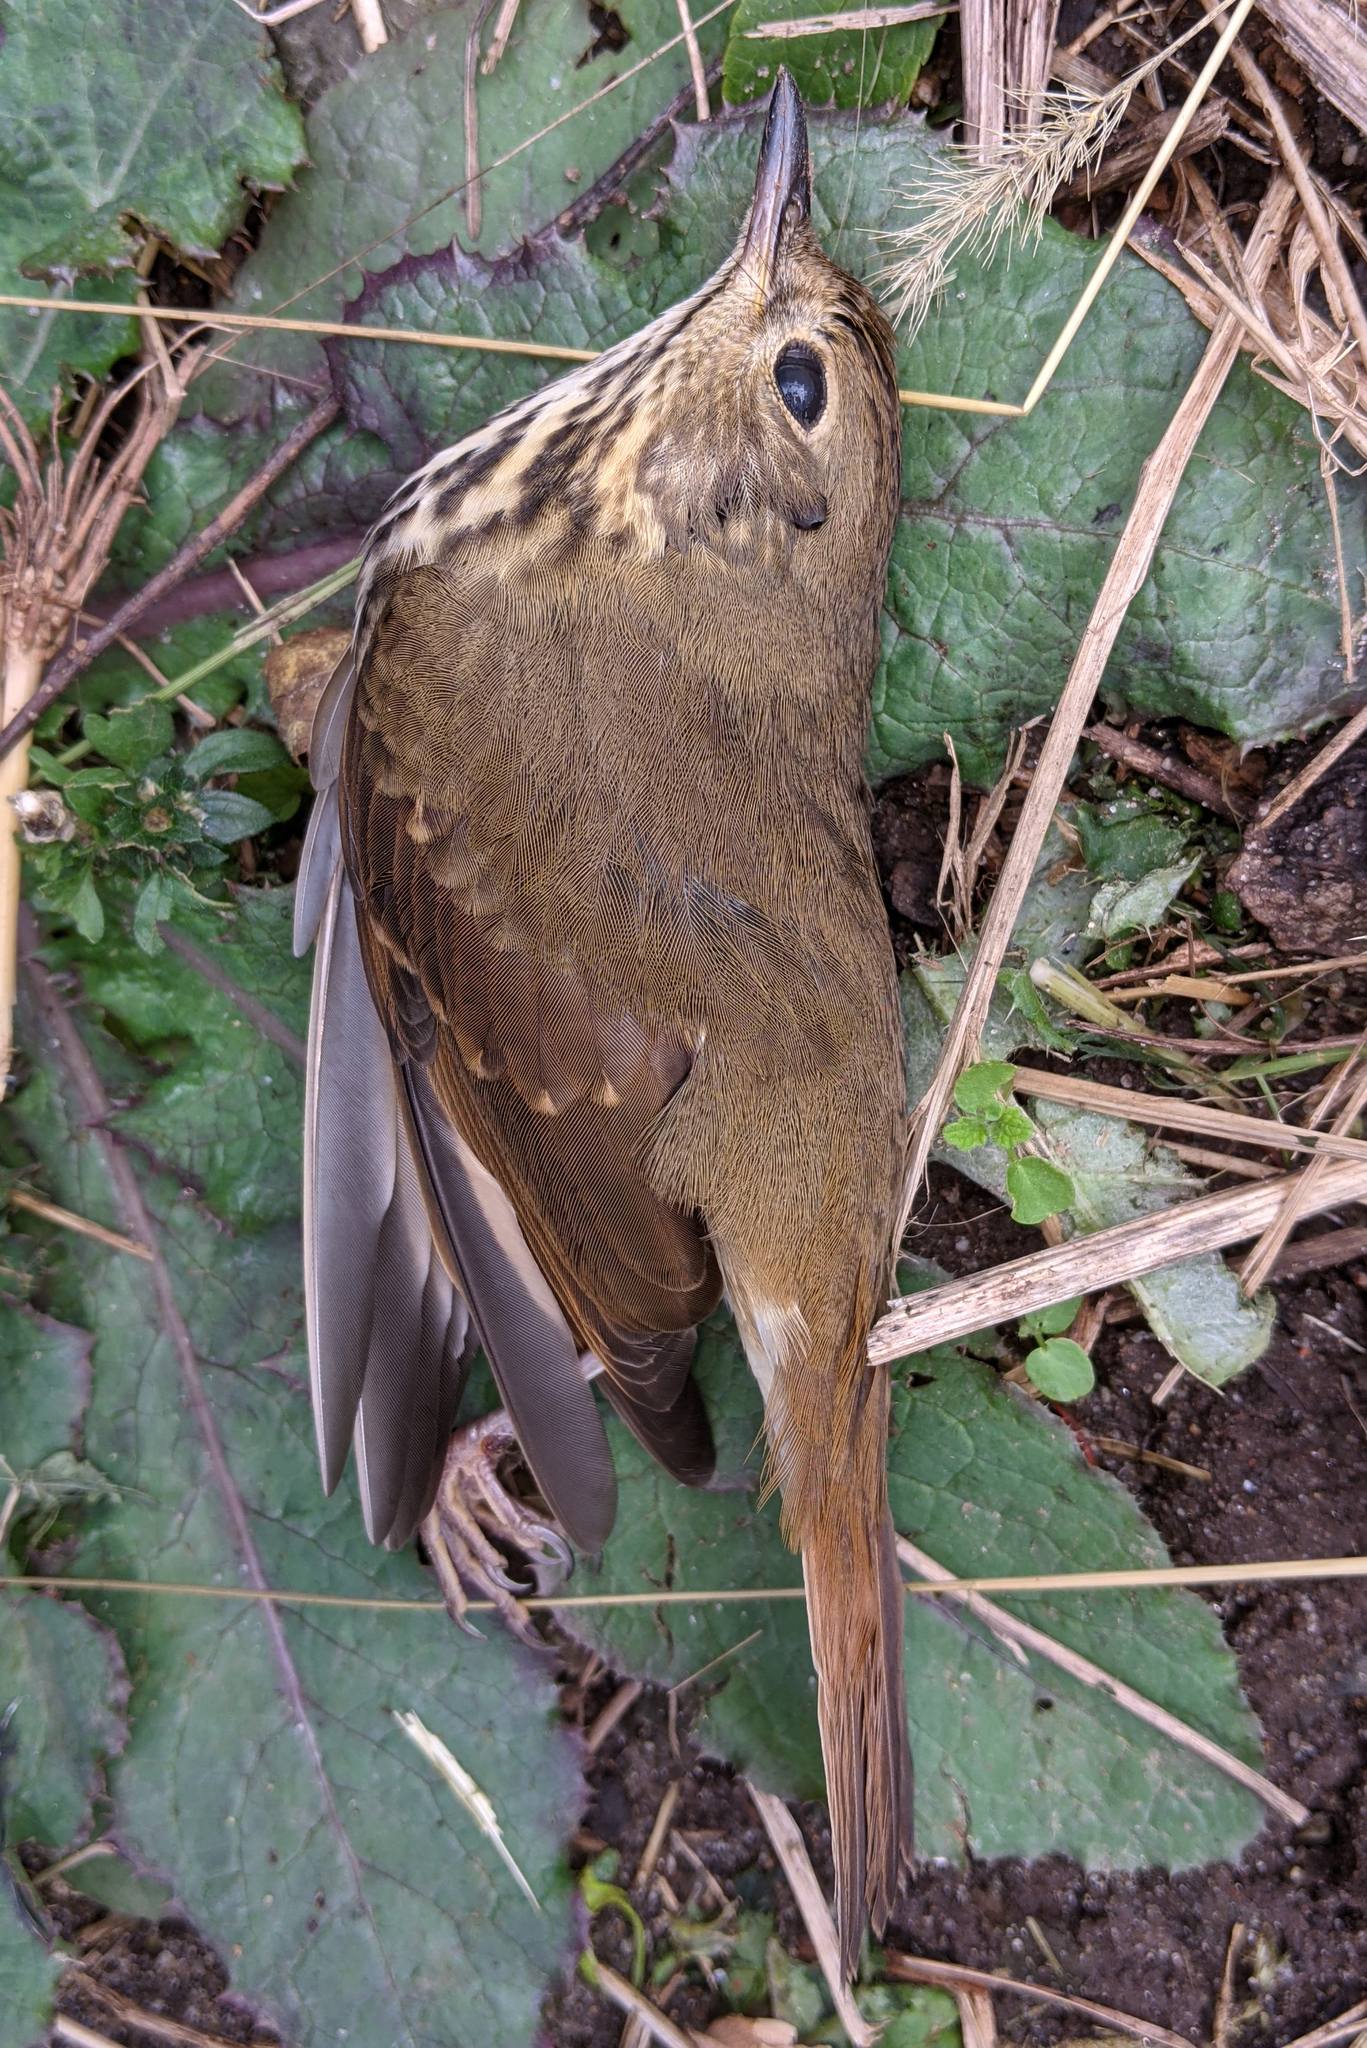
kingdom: Animalia
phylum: Chordata
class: Aves
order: Passeriformes
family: Turdidae
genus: Catharus
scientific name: Catharus guttatus
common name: Hermit thrush
